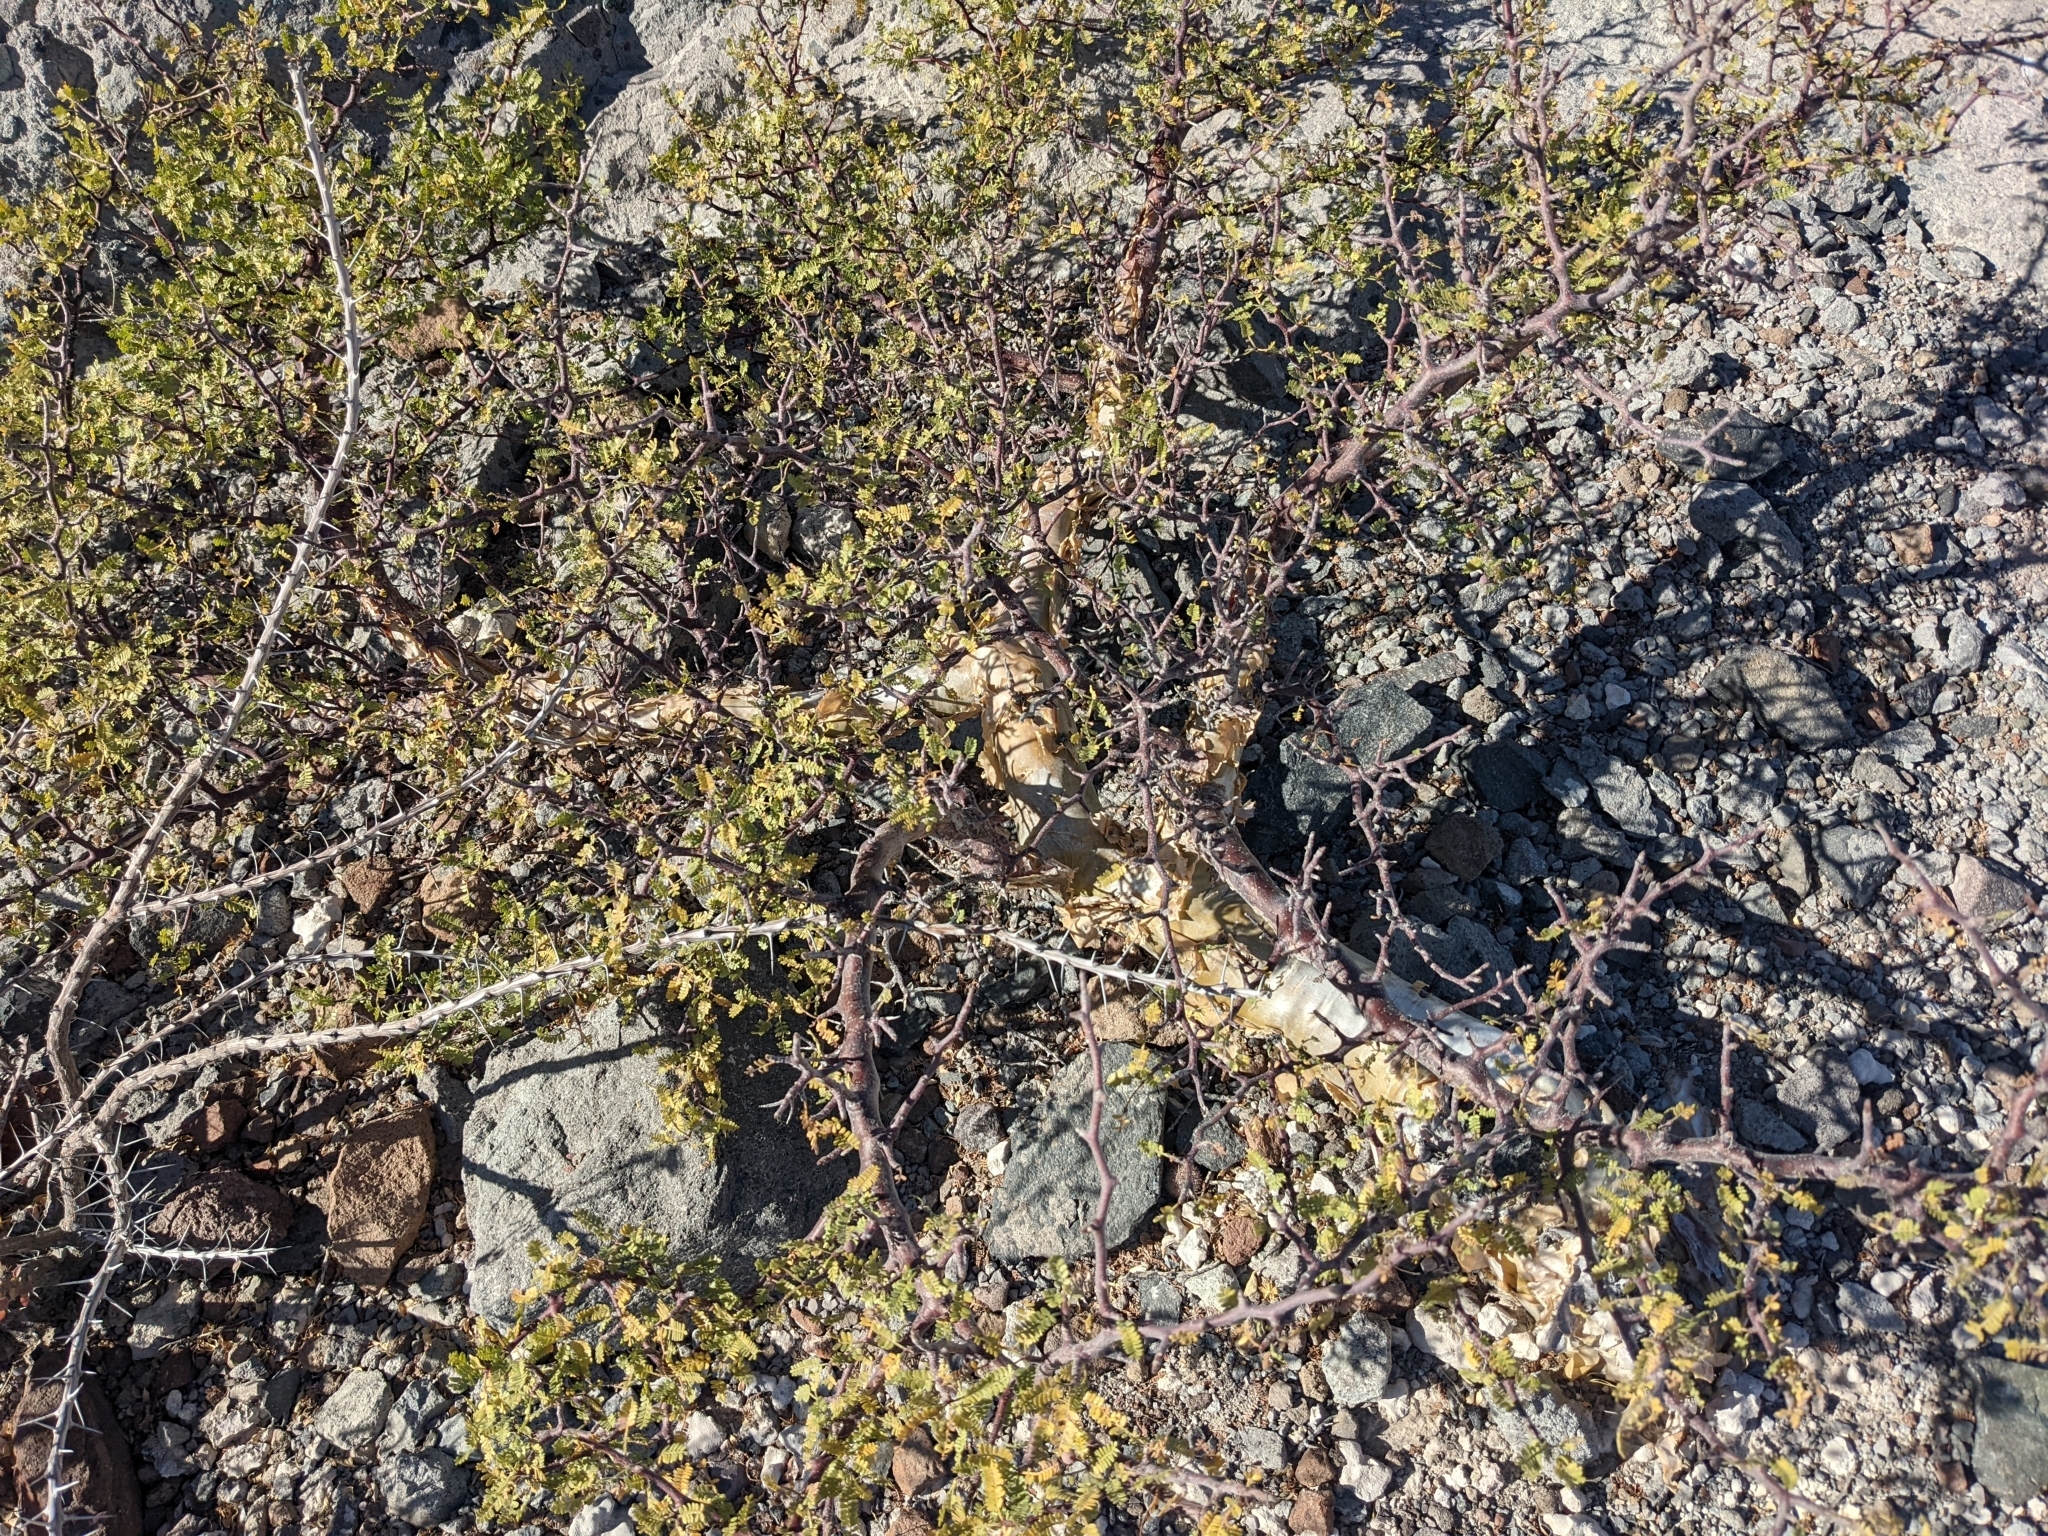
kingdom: Plantae
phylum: Tracheophyta
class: Magnoliopsida
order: Sapindales
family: Burseraceae
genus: Bursera
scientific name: Bursera microphylla
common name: Elephant tree
